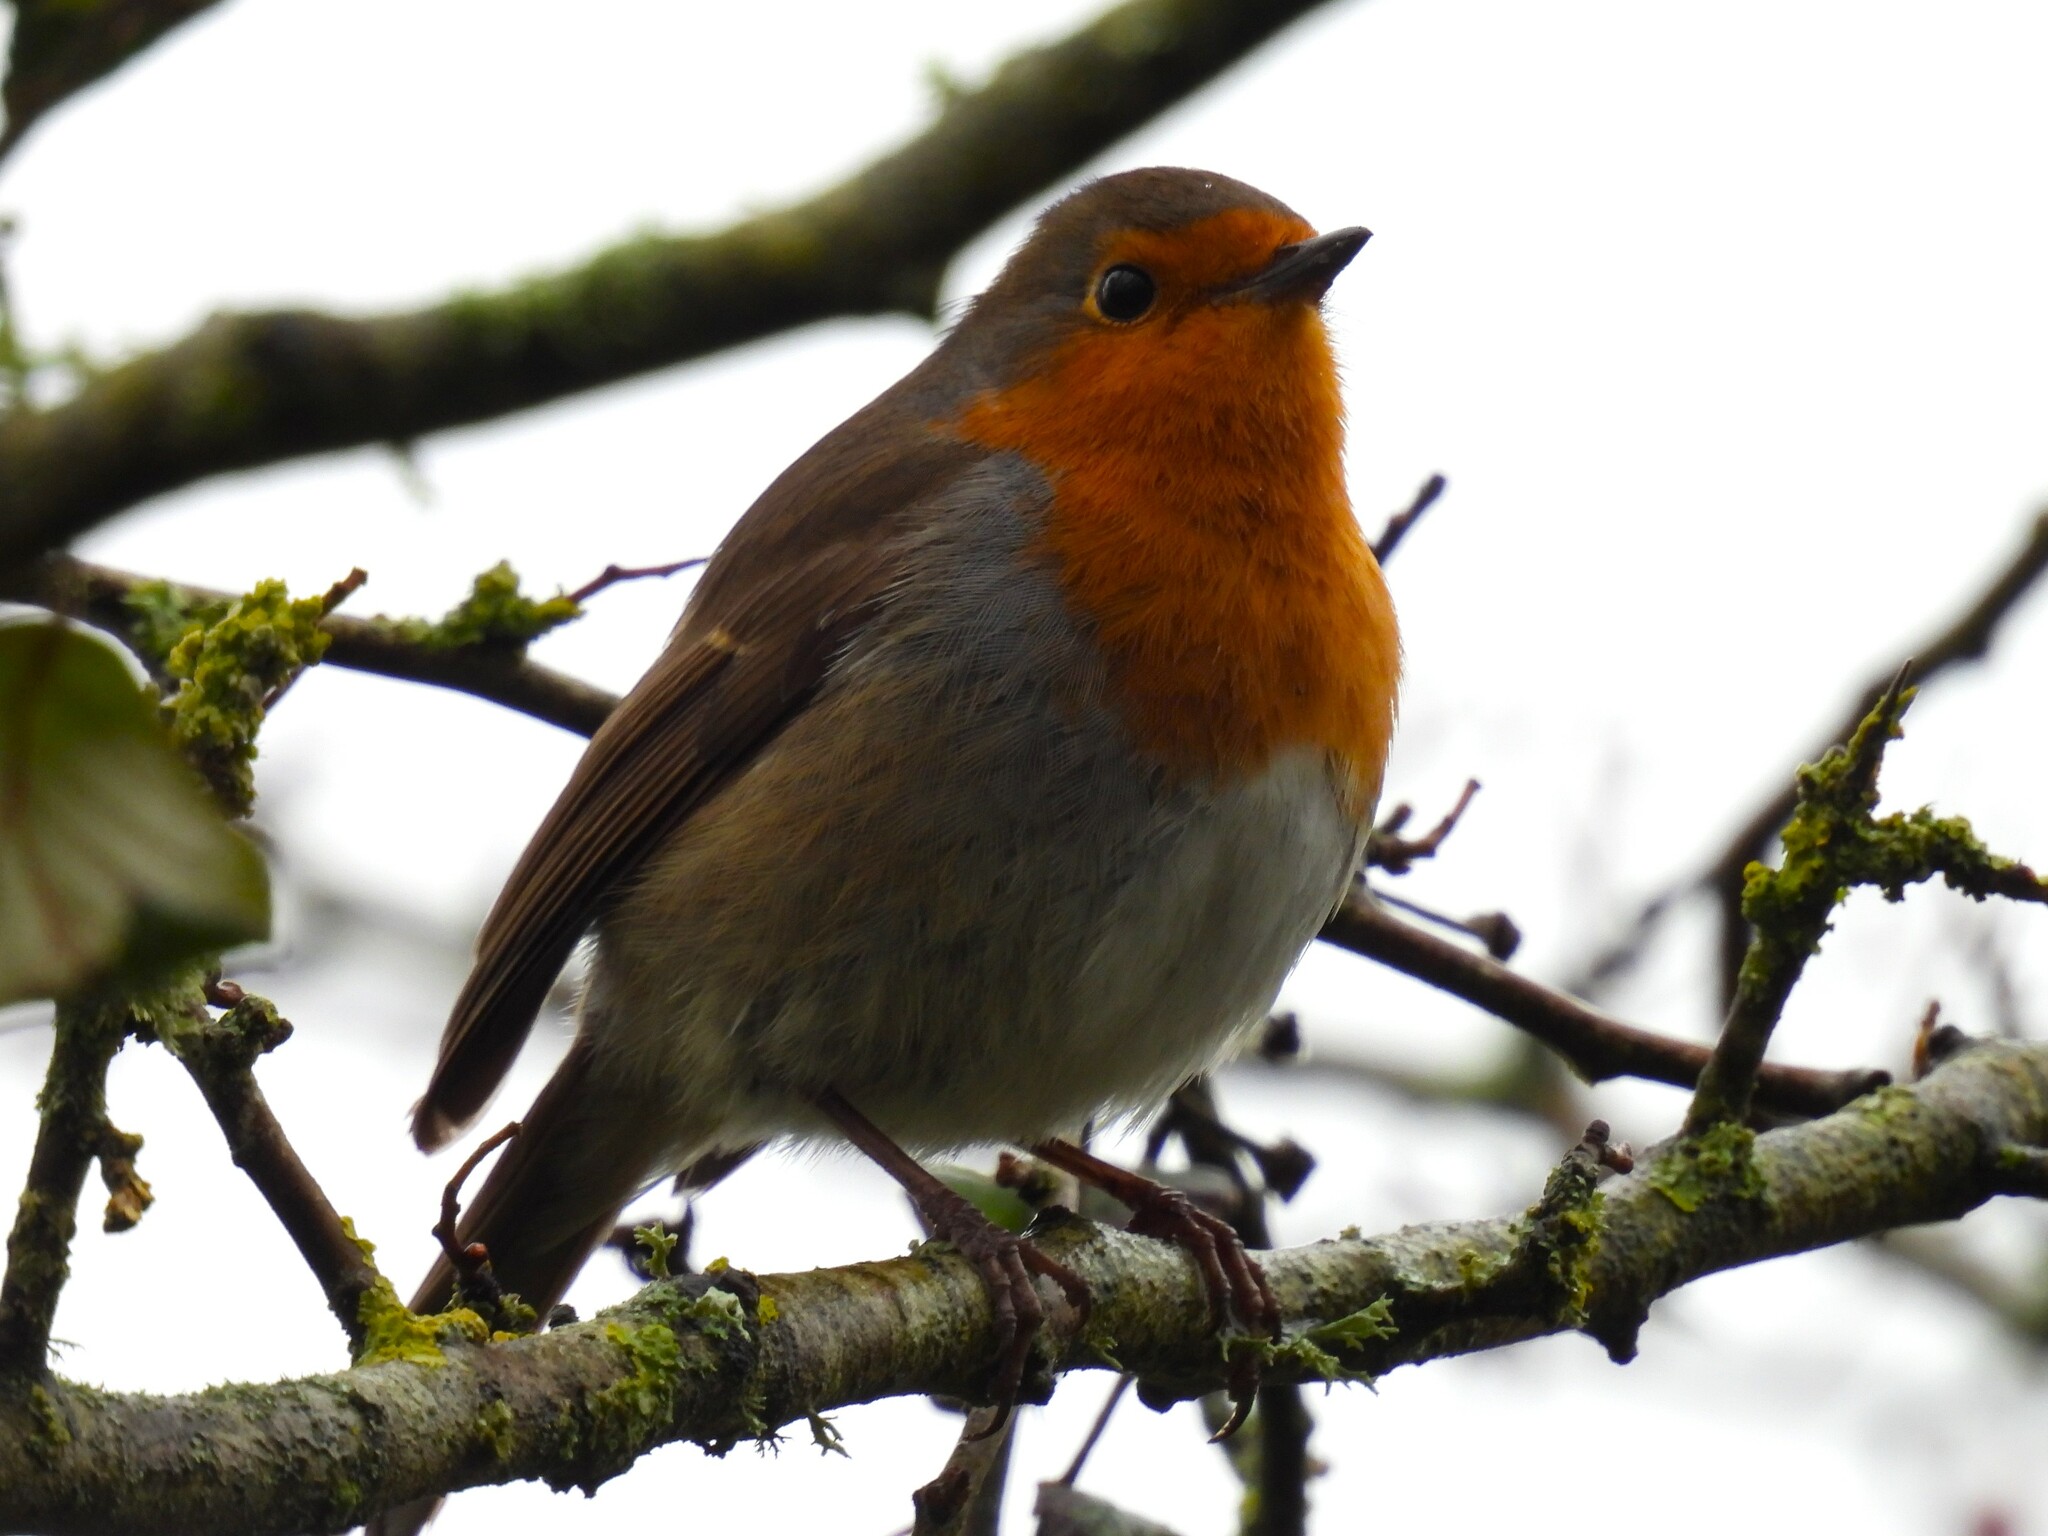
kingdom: Animalia
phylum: Chordata
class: Aves
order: Passeriformes
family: Muscicapidae
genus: Erithacus
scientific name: Erithacus rubecula
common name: European robin
